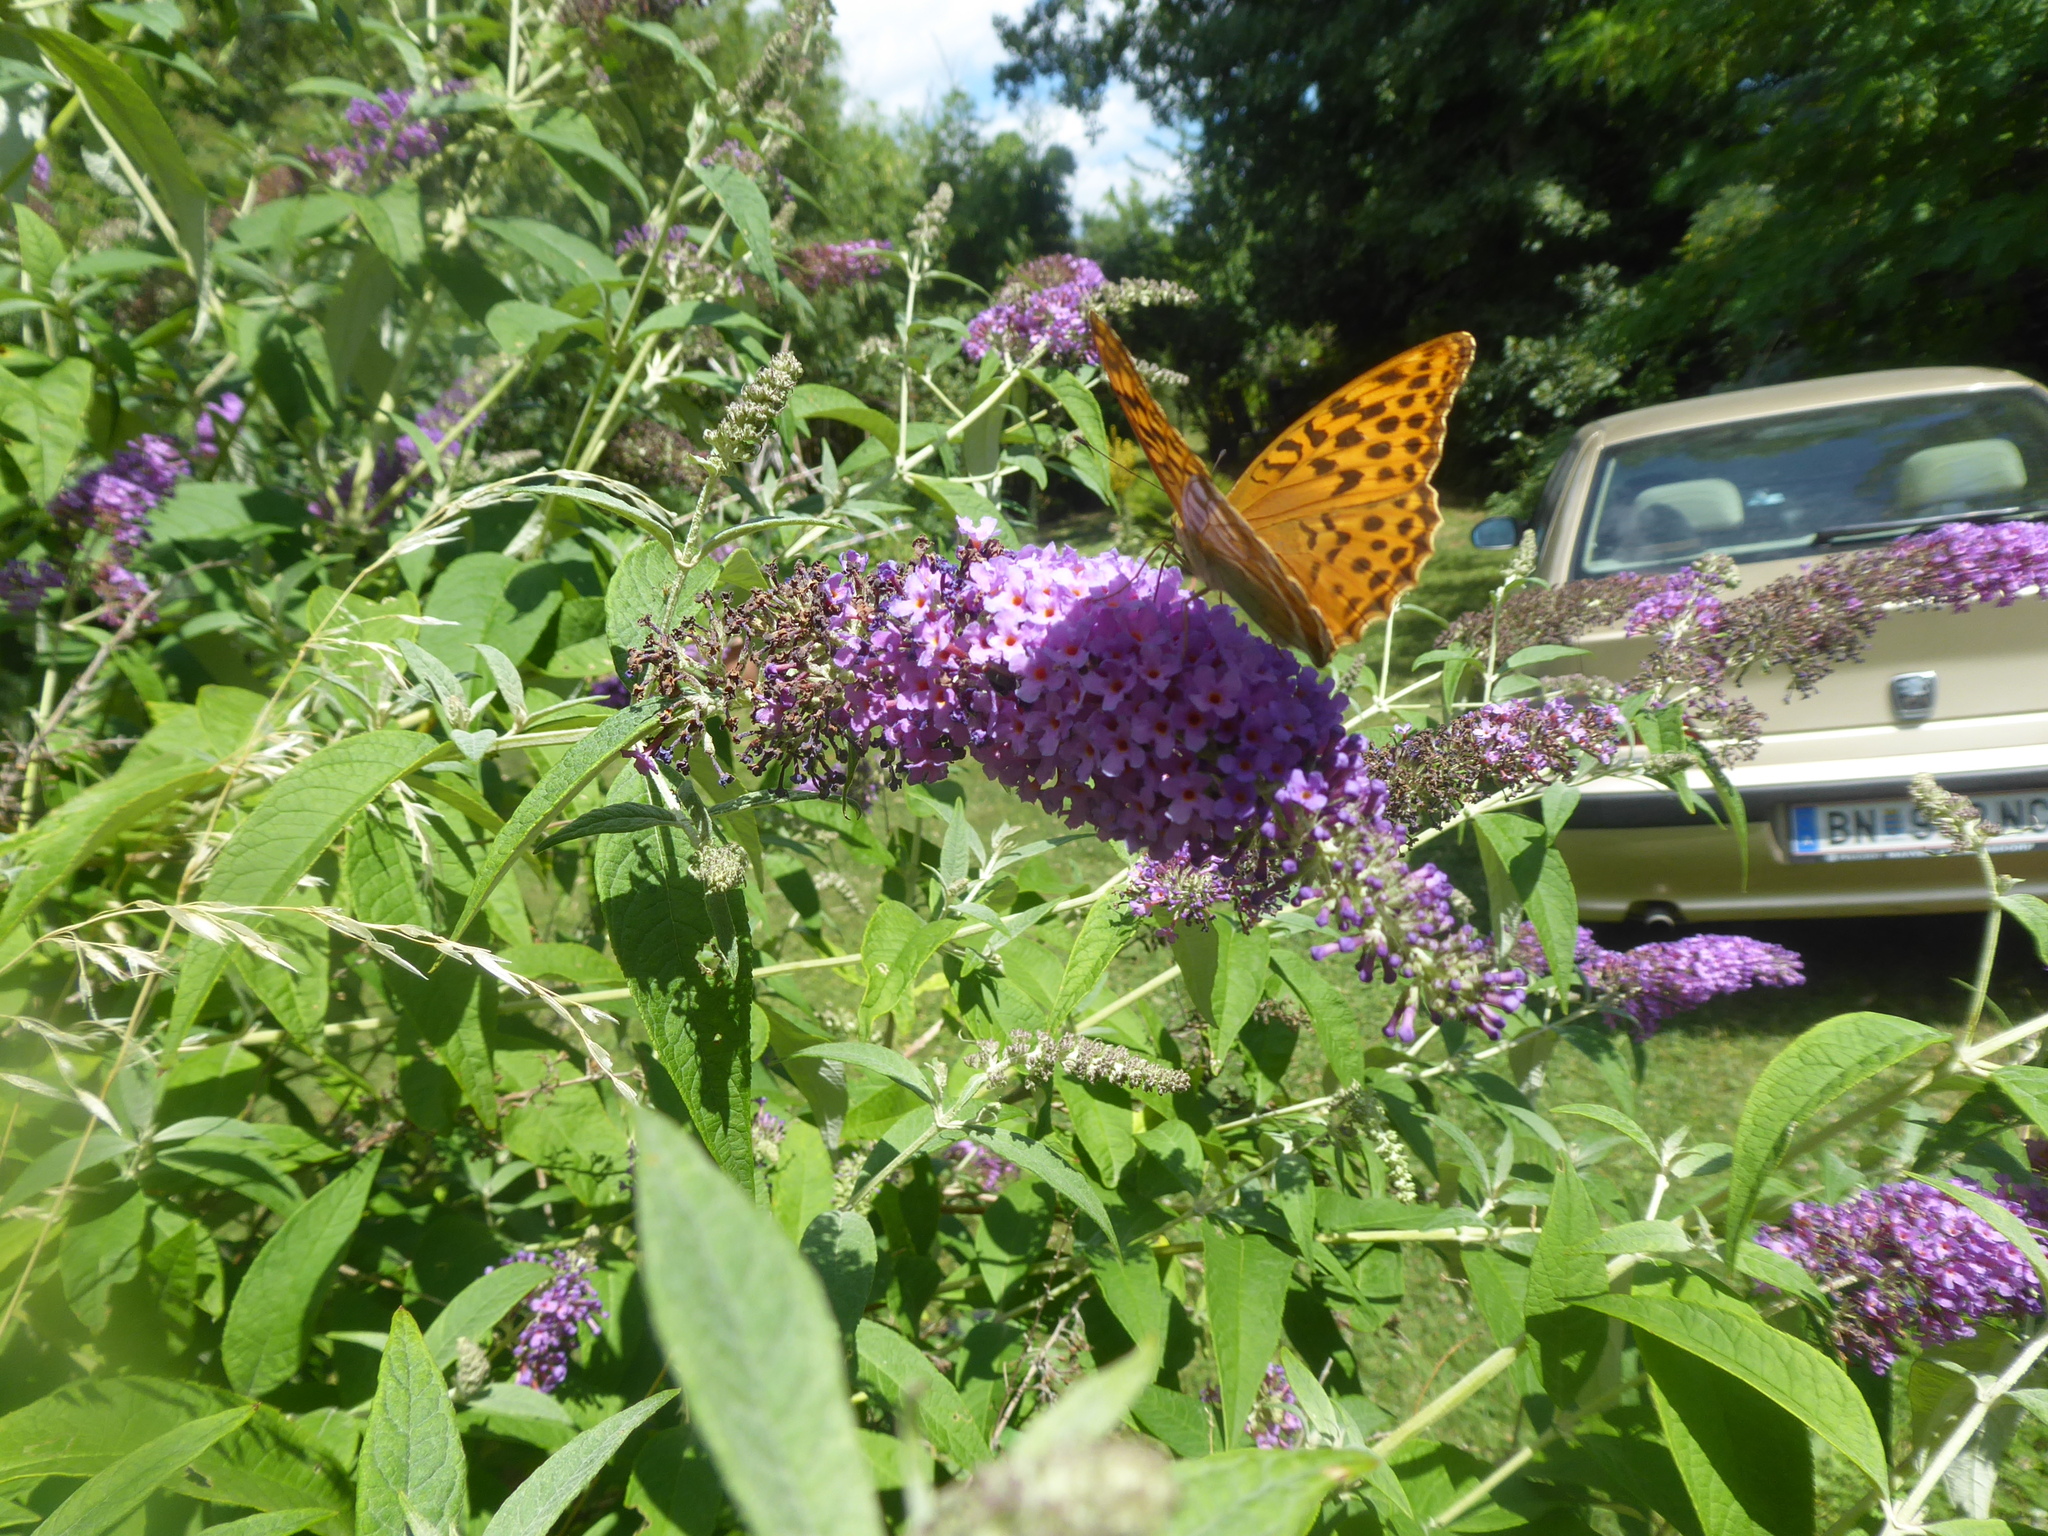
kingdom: Animalia
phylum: Arthropoda
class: Insecta
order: Lepidoptera
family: Nymphalidae
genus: Argynnis
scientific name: Argynnis paphia
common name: Silver-washed fritillary
